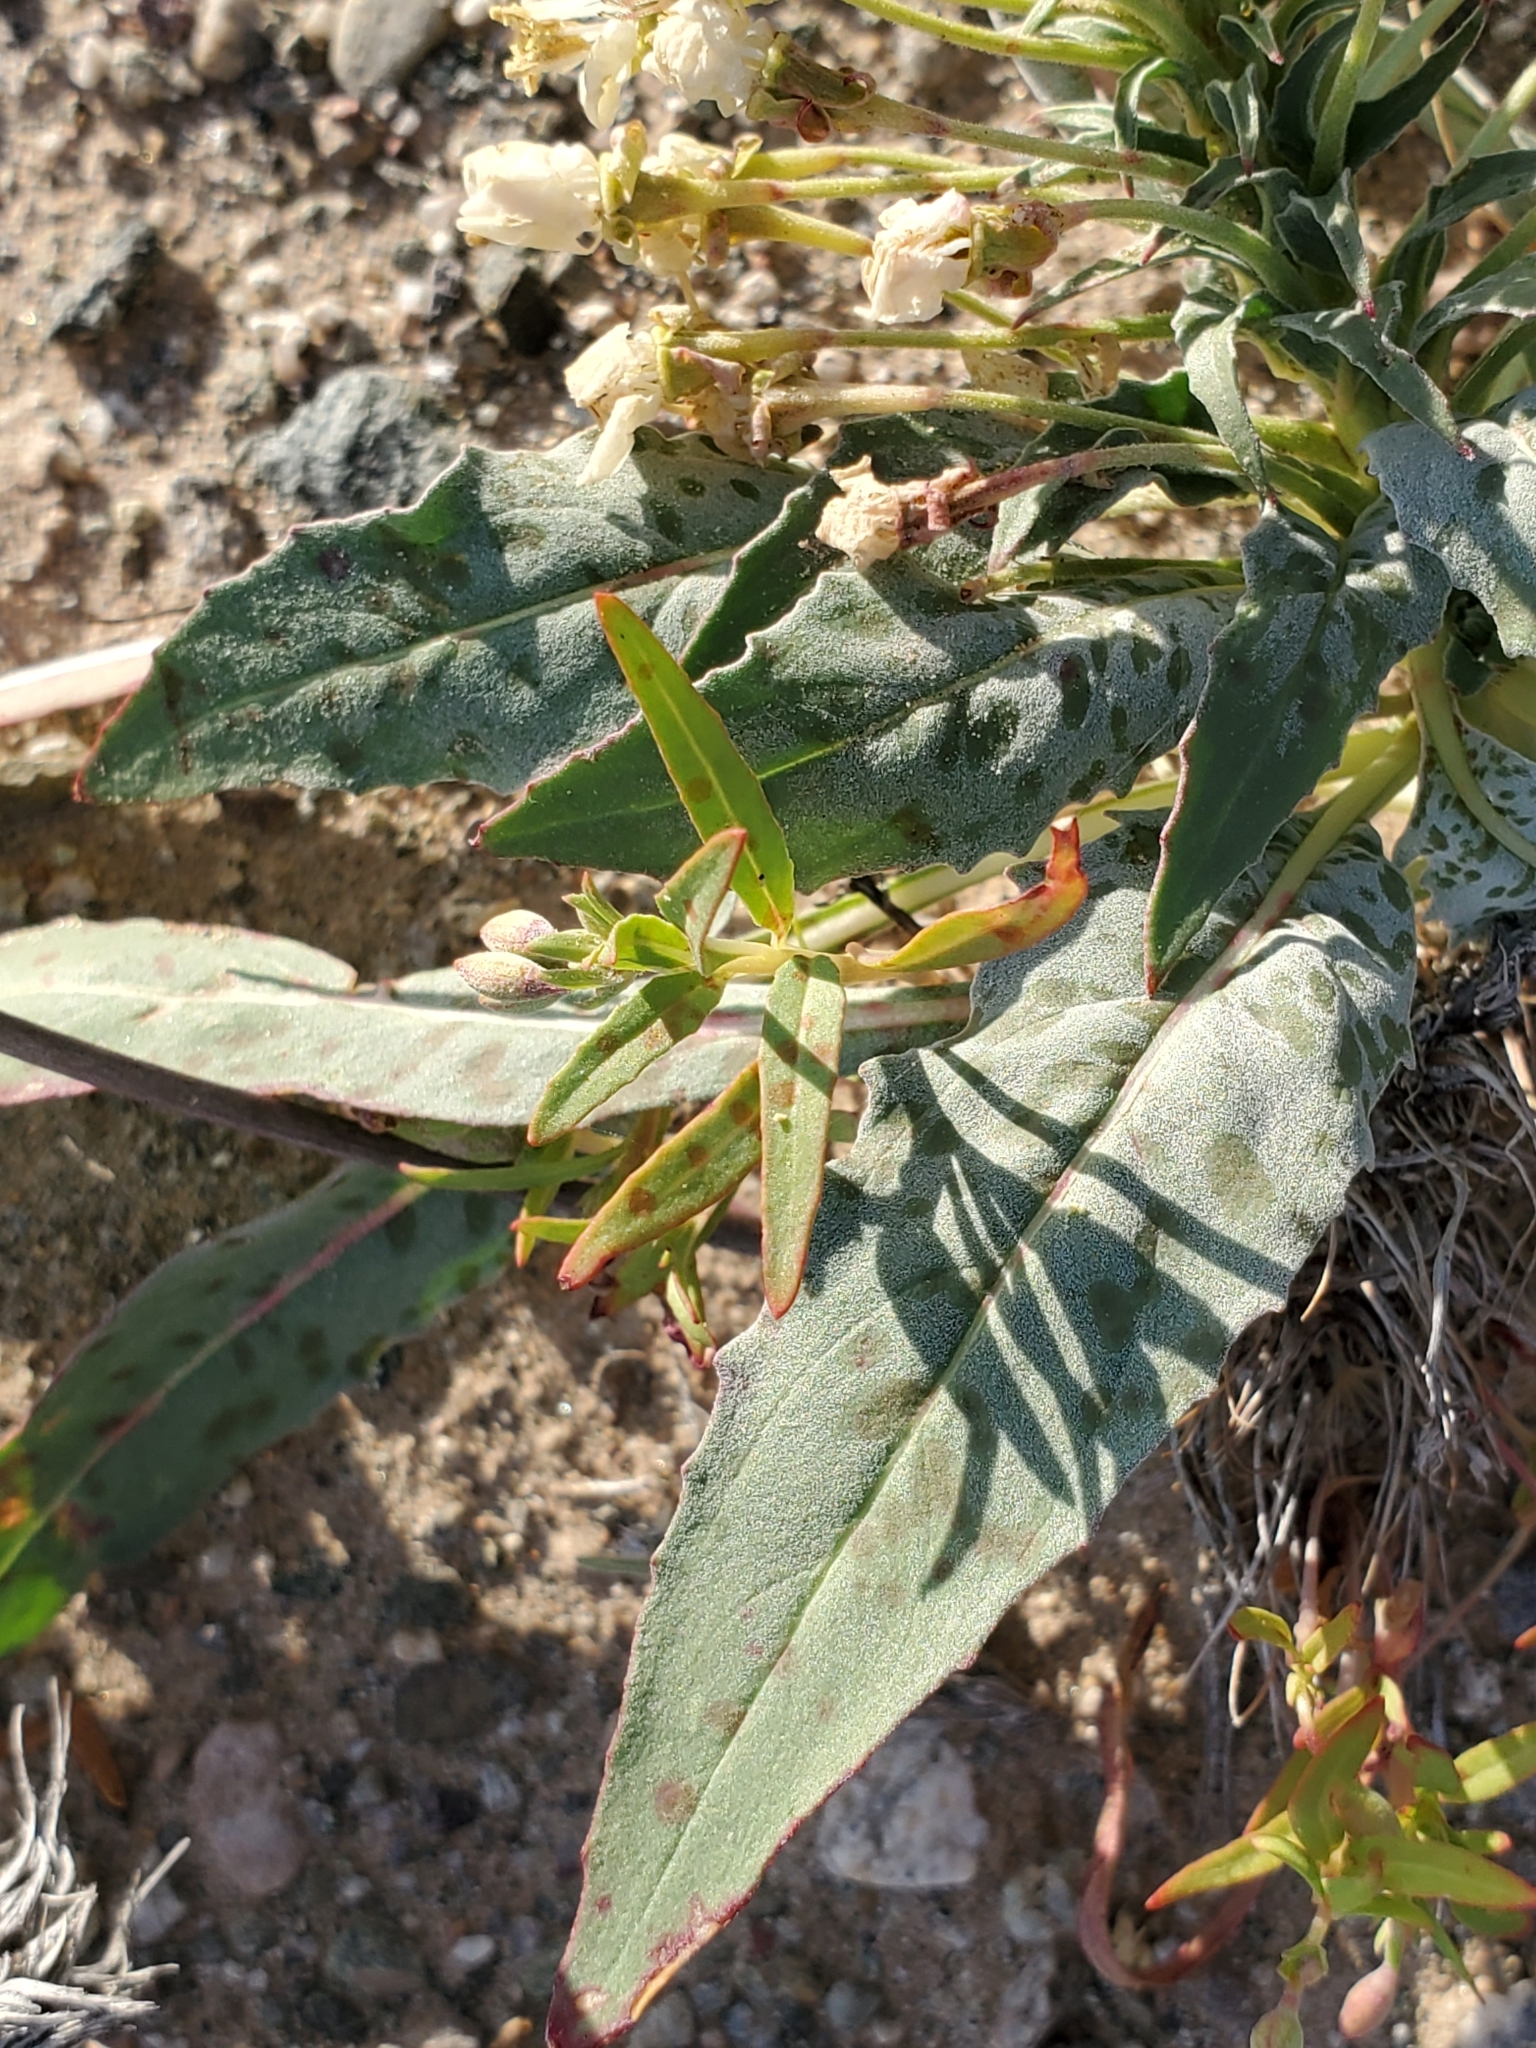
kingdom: Plantae
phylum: Tracheophyta
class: Magnoliopsida
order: Myrtales
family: Onagraceae
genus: Eremothera
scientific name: Eremothera boothii
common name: Booth's evening primrose
